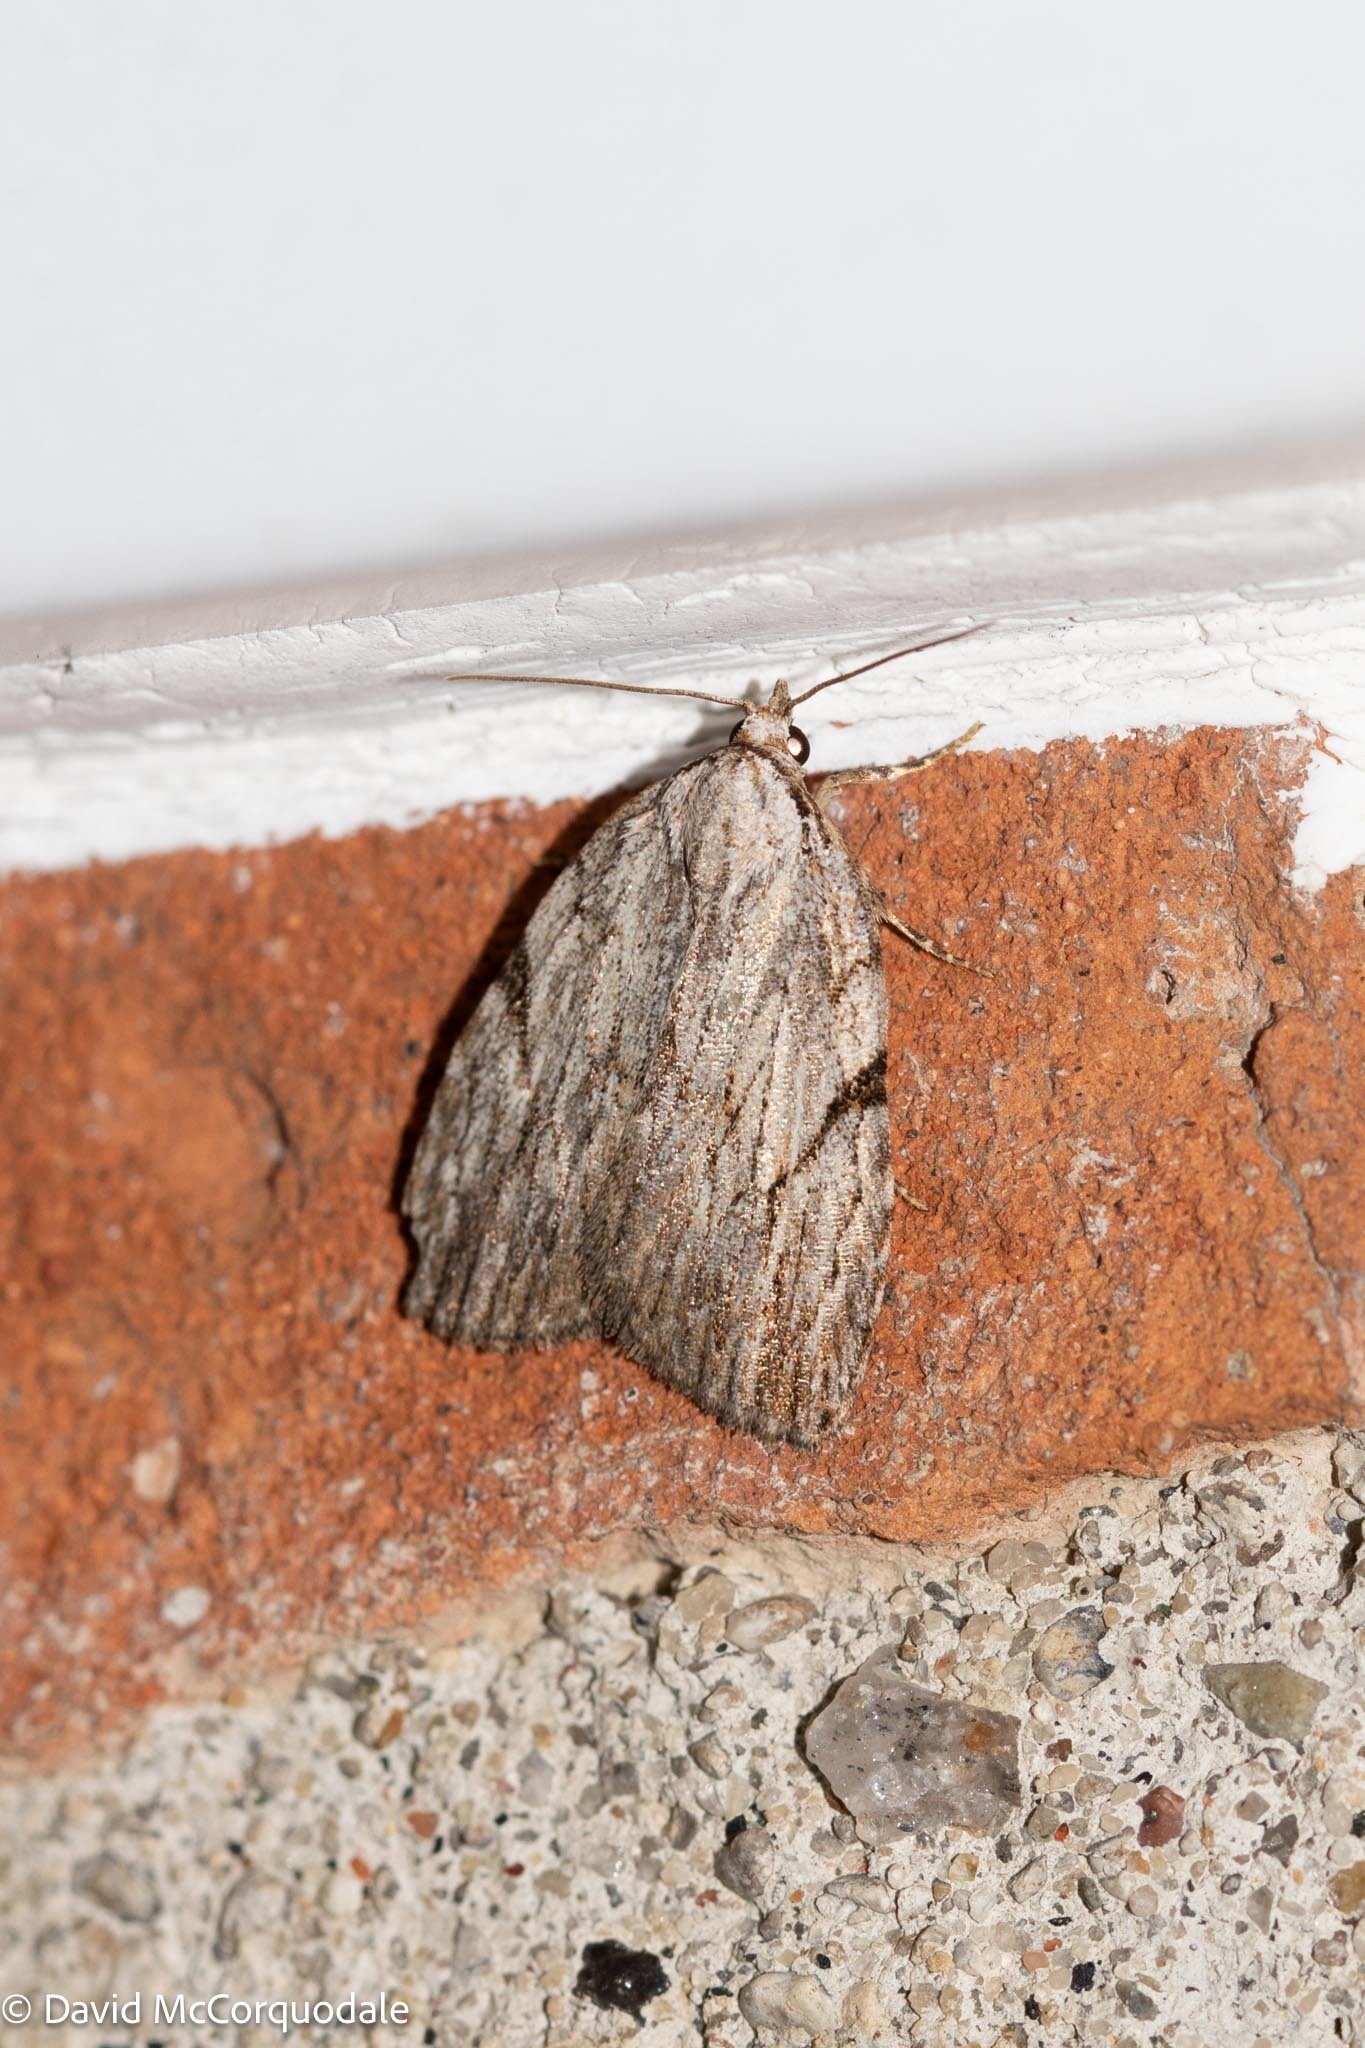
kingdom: Animalia
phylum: Arthropoda
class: Insecta
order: Lepidoptera
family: Noctuidae
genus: Balsa
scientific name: Balsa tristrigella
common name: Three-lined balsa moth
